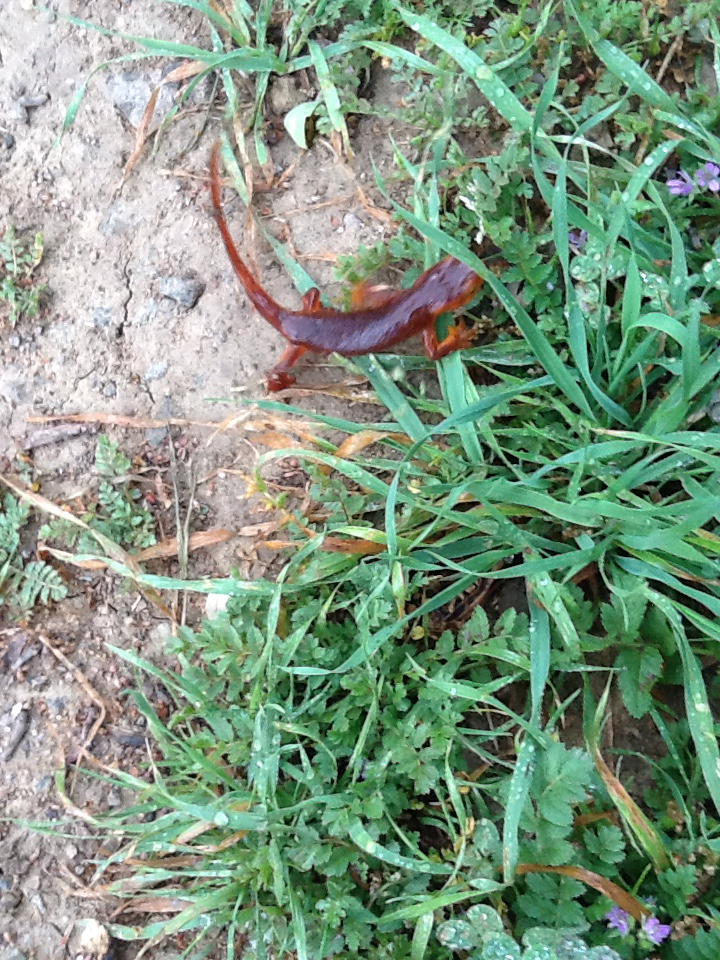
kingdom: Animalia
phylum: Chordata
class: Amphibia
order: Caudata
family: Salamandridae
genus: Taricha
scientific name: Taricha sierrae
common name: Sierra newt
